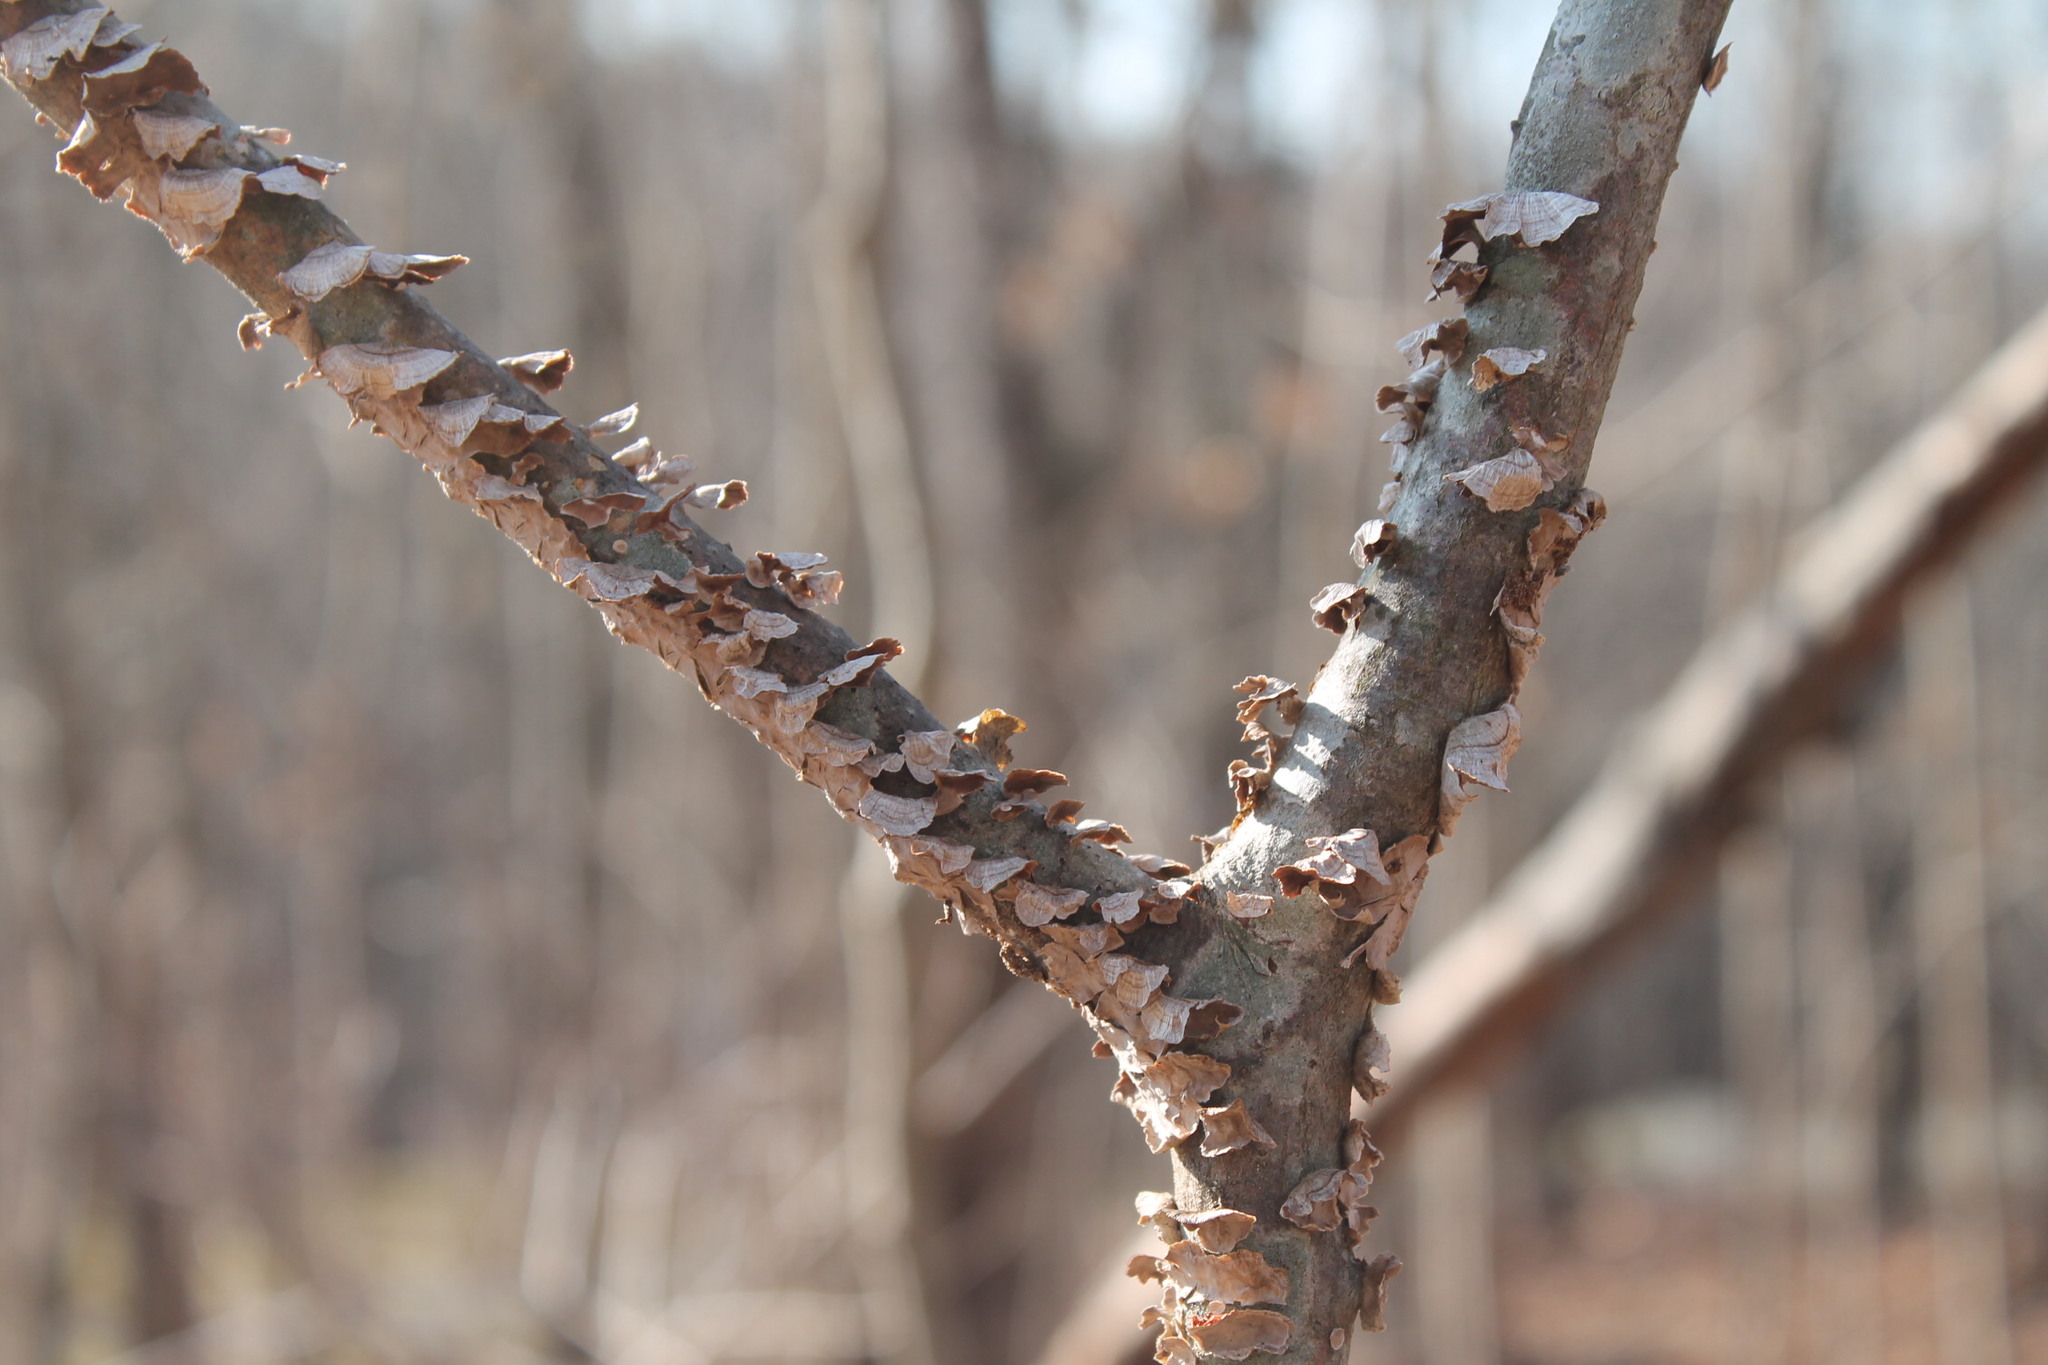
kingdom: Fungi
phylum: Basidiomycota
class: Agaricomycetes
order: Russulales
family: Stereaceae
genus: Stereum
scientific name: Stereum striatum
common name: Silky parchment
